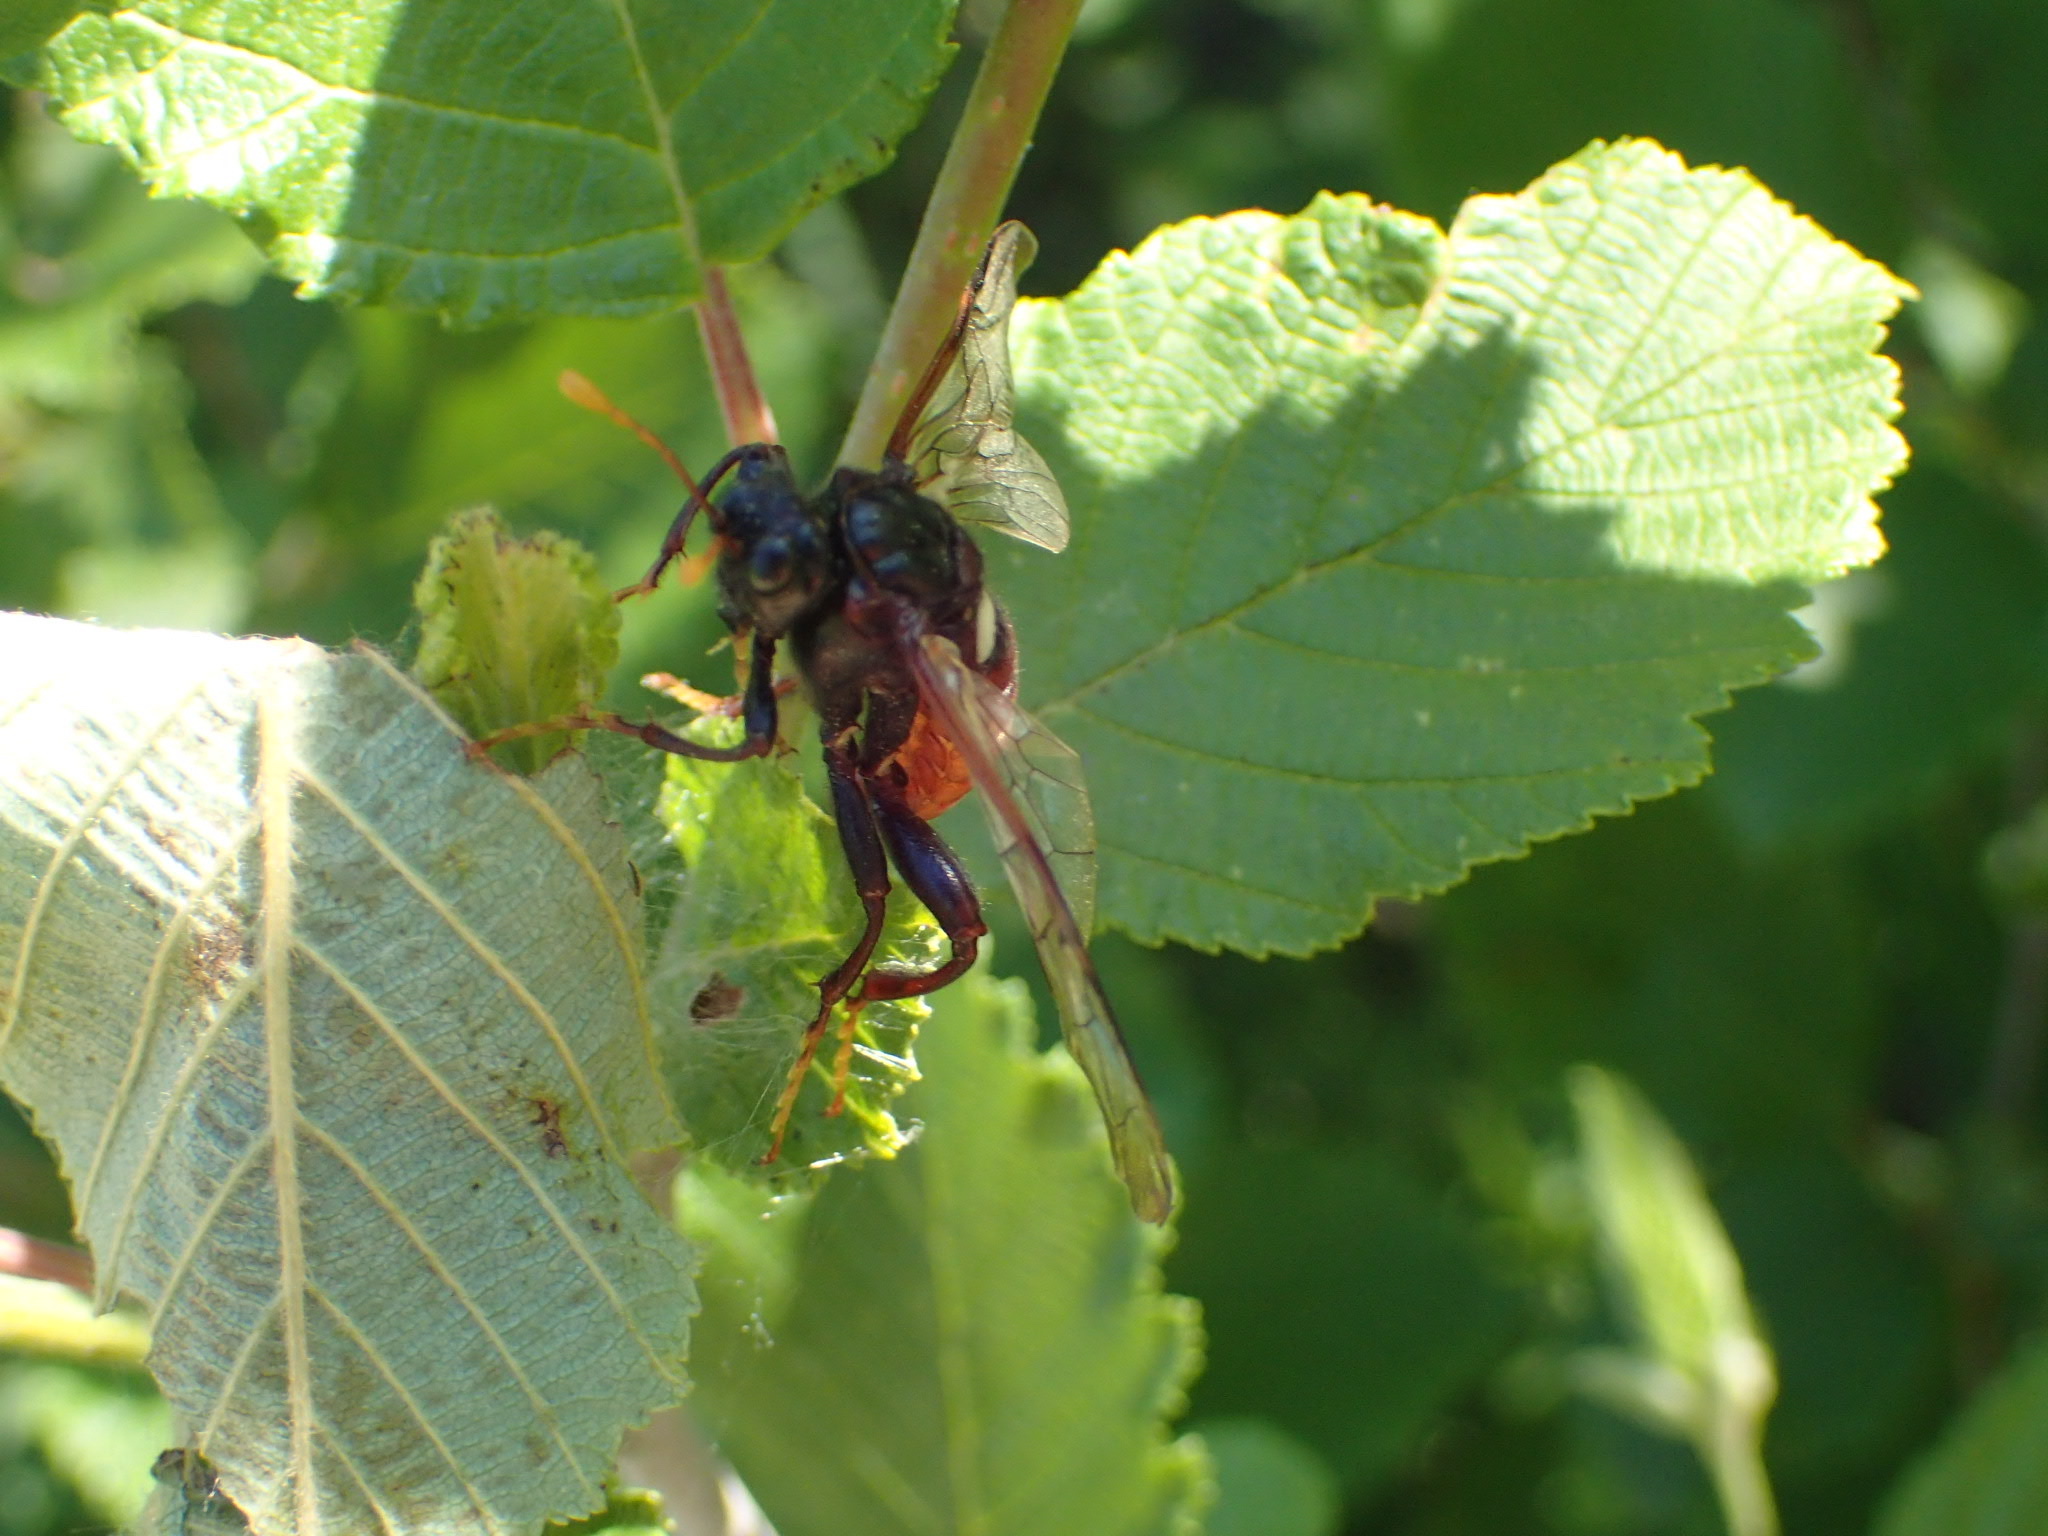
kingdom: Animalia
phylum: Arthropoda
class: Insecta
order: Hymenoptera
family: Cimbicidae
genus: Cimbex
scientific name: Cimbex americana
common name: Elm sawfly
